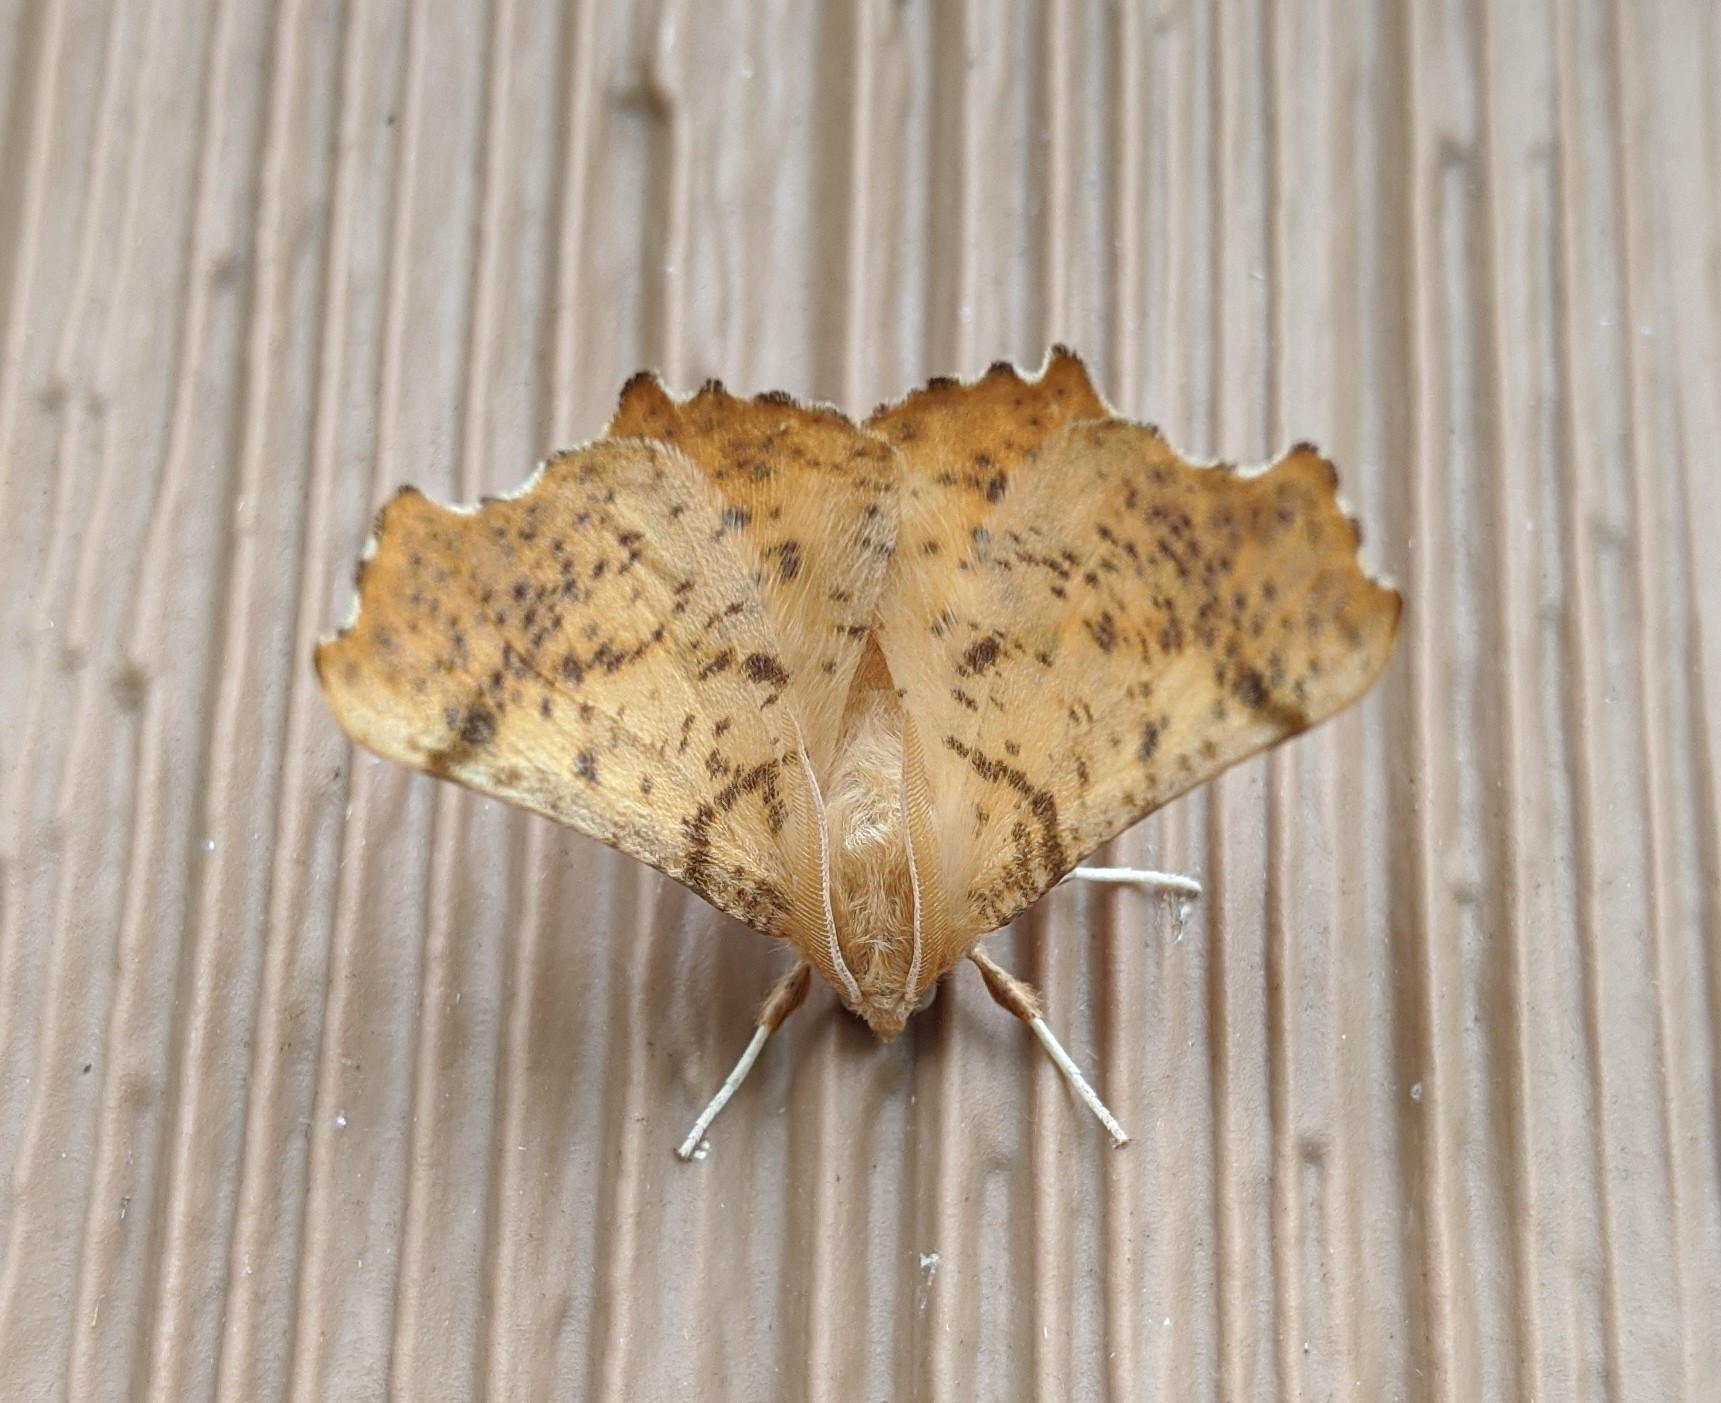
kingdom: Animalia
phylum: Arthropoda
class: Insecta
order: Lepidoptera
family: Geometridae
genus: Ennomos
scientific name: Ennomos magnaria
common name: Maple spanworm
